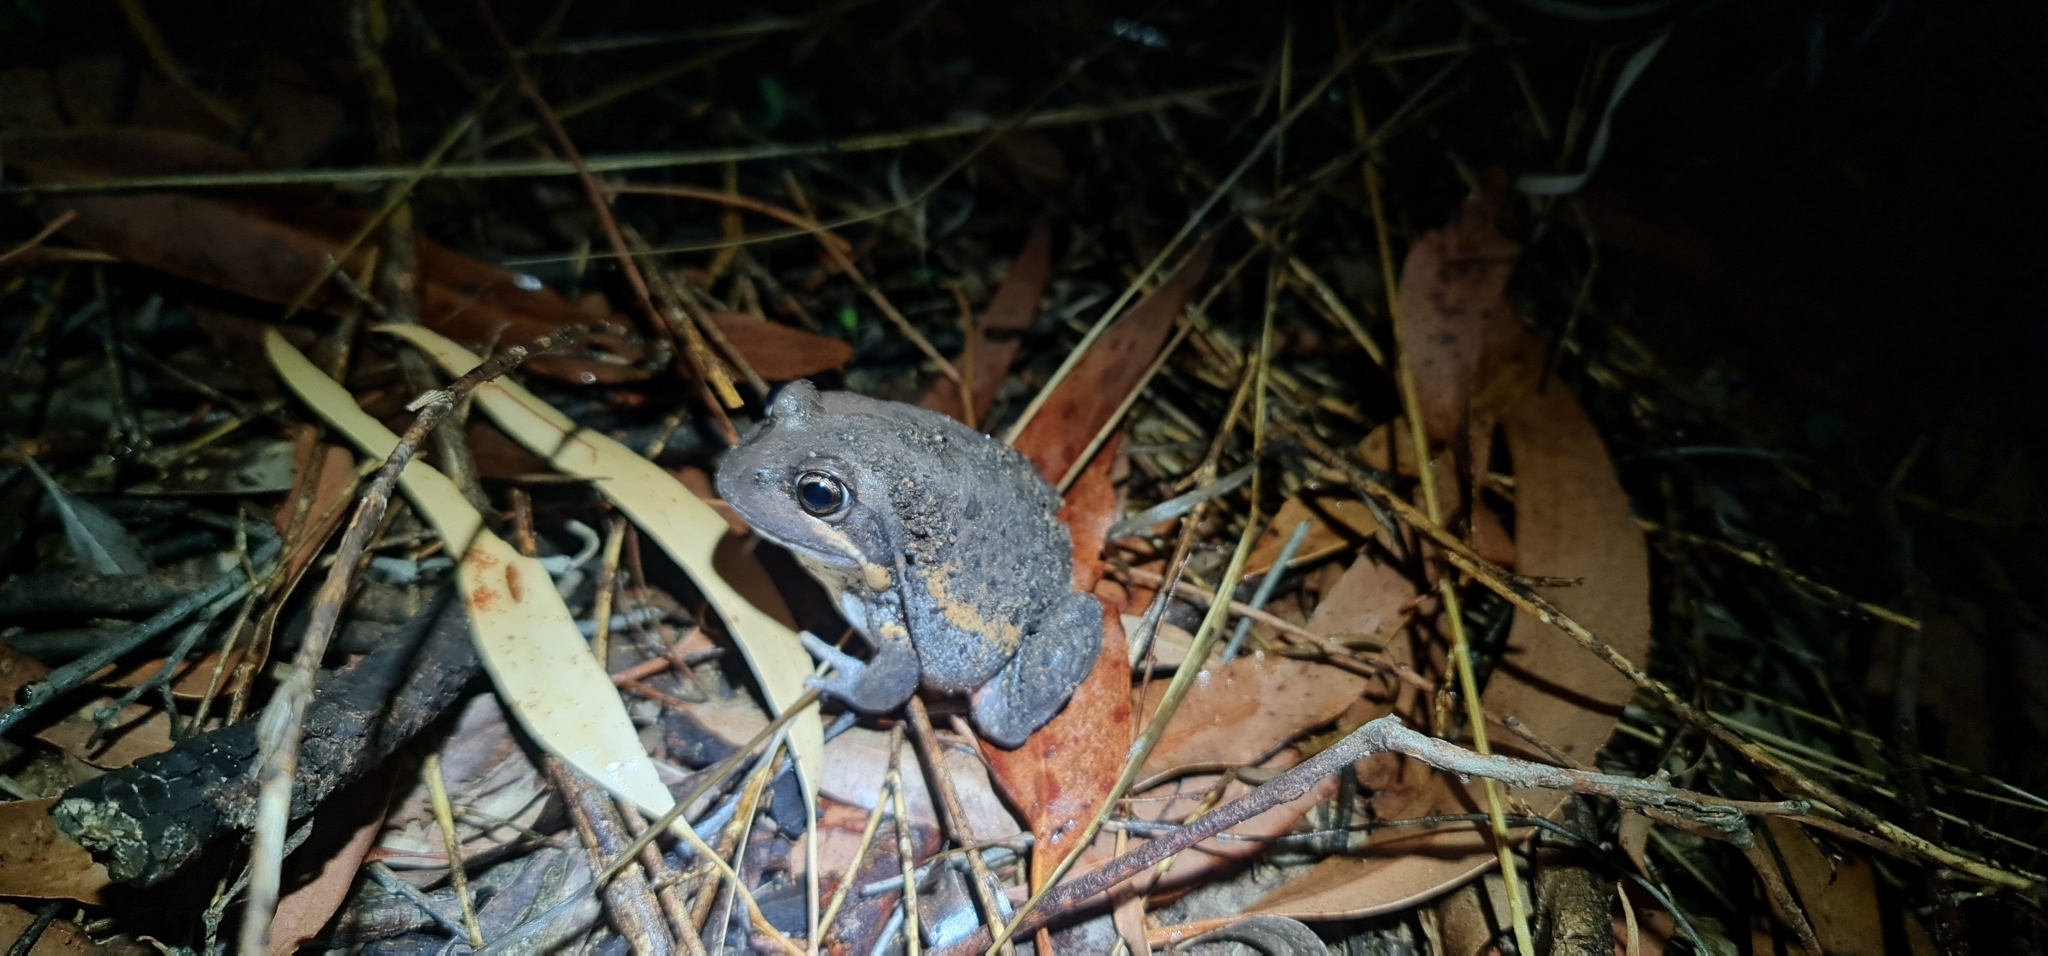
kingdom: Animalia
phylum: Chordata
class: Amphibia
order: Anura
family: Limnodynastidae
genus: Limnodynastes
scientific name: Limnodynastes terraereginae
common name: Northern banjo frog
